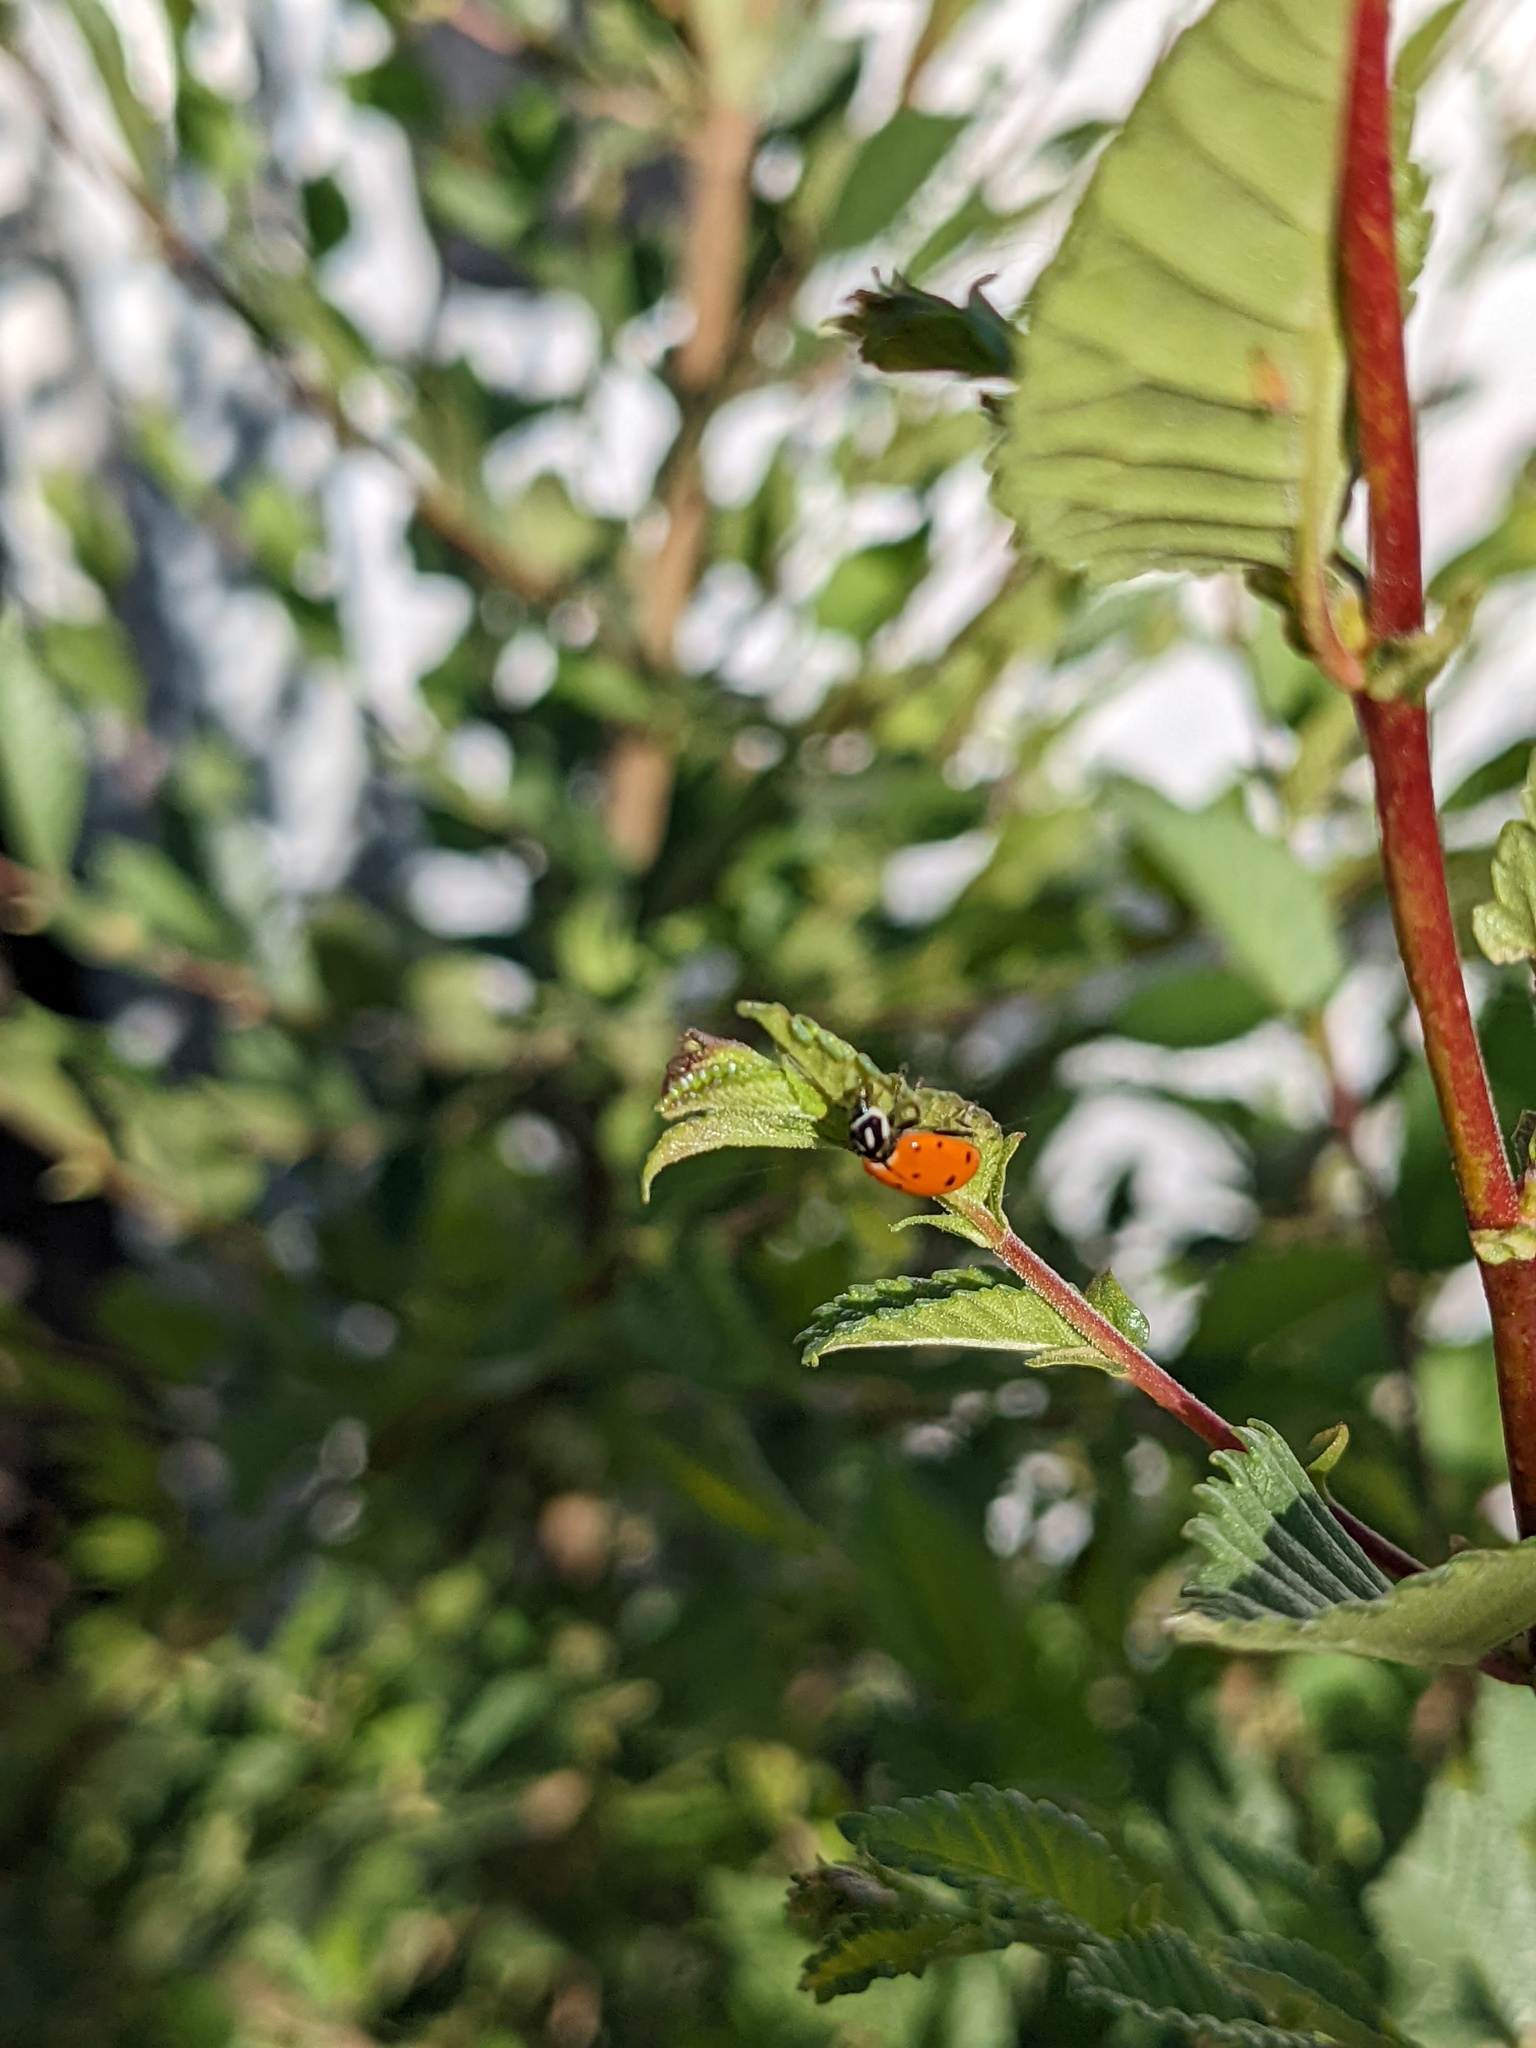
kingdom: Animalia
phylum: Arthropoda
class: Insecta
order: Coleoptera
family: Coccinellidae
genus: Hippodamia
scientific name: Hippodamia convergens
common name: Convergent lady beetle
